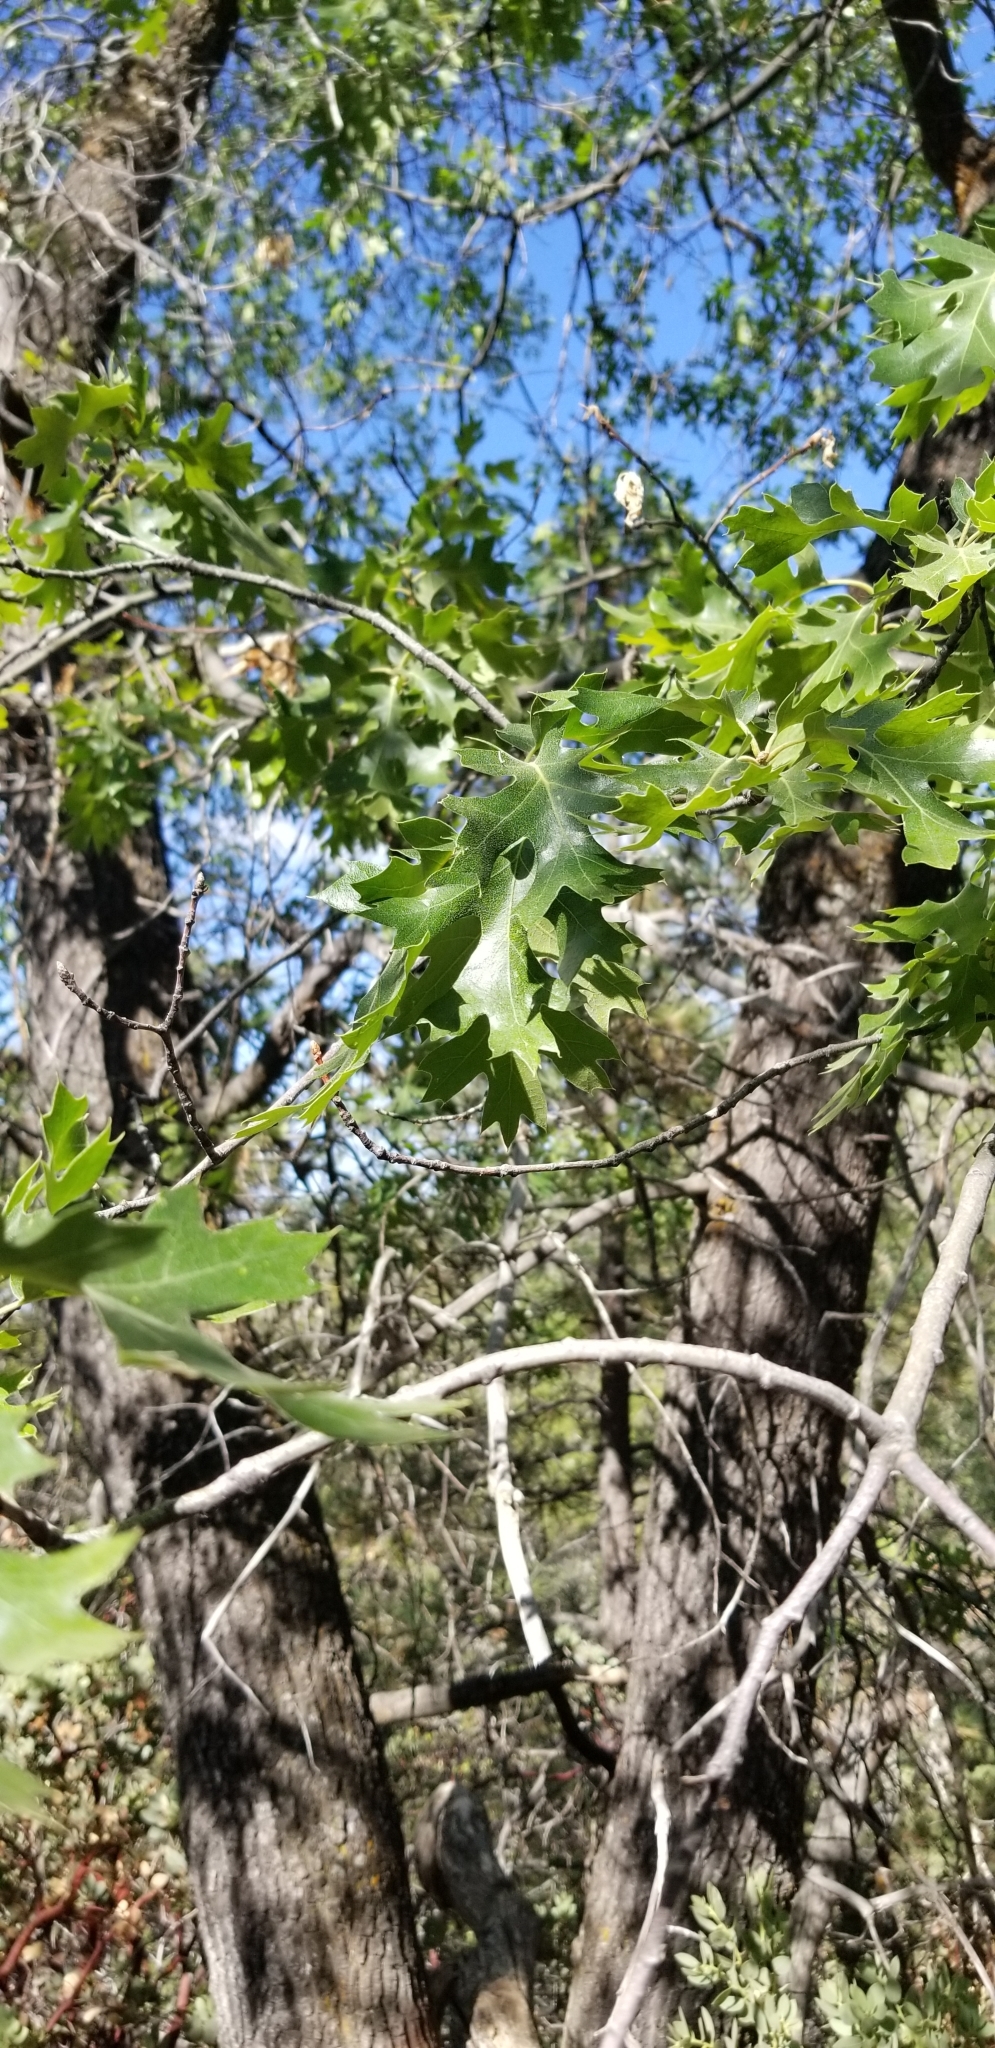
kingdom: Plantae
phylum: Tracheophyta
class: Magnoliopsida
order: Fagales
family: Fagaceae
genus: Quercus
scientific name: Quercus kelloggii
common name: California black oak
